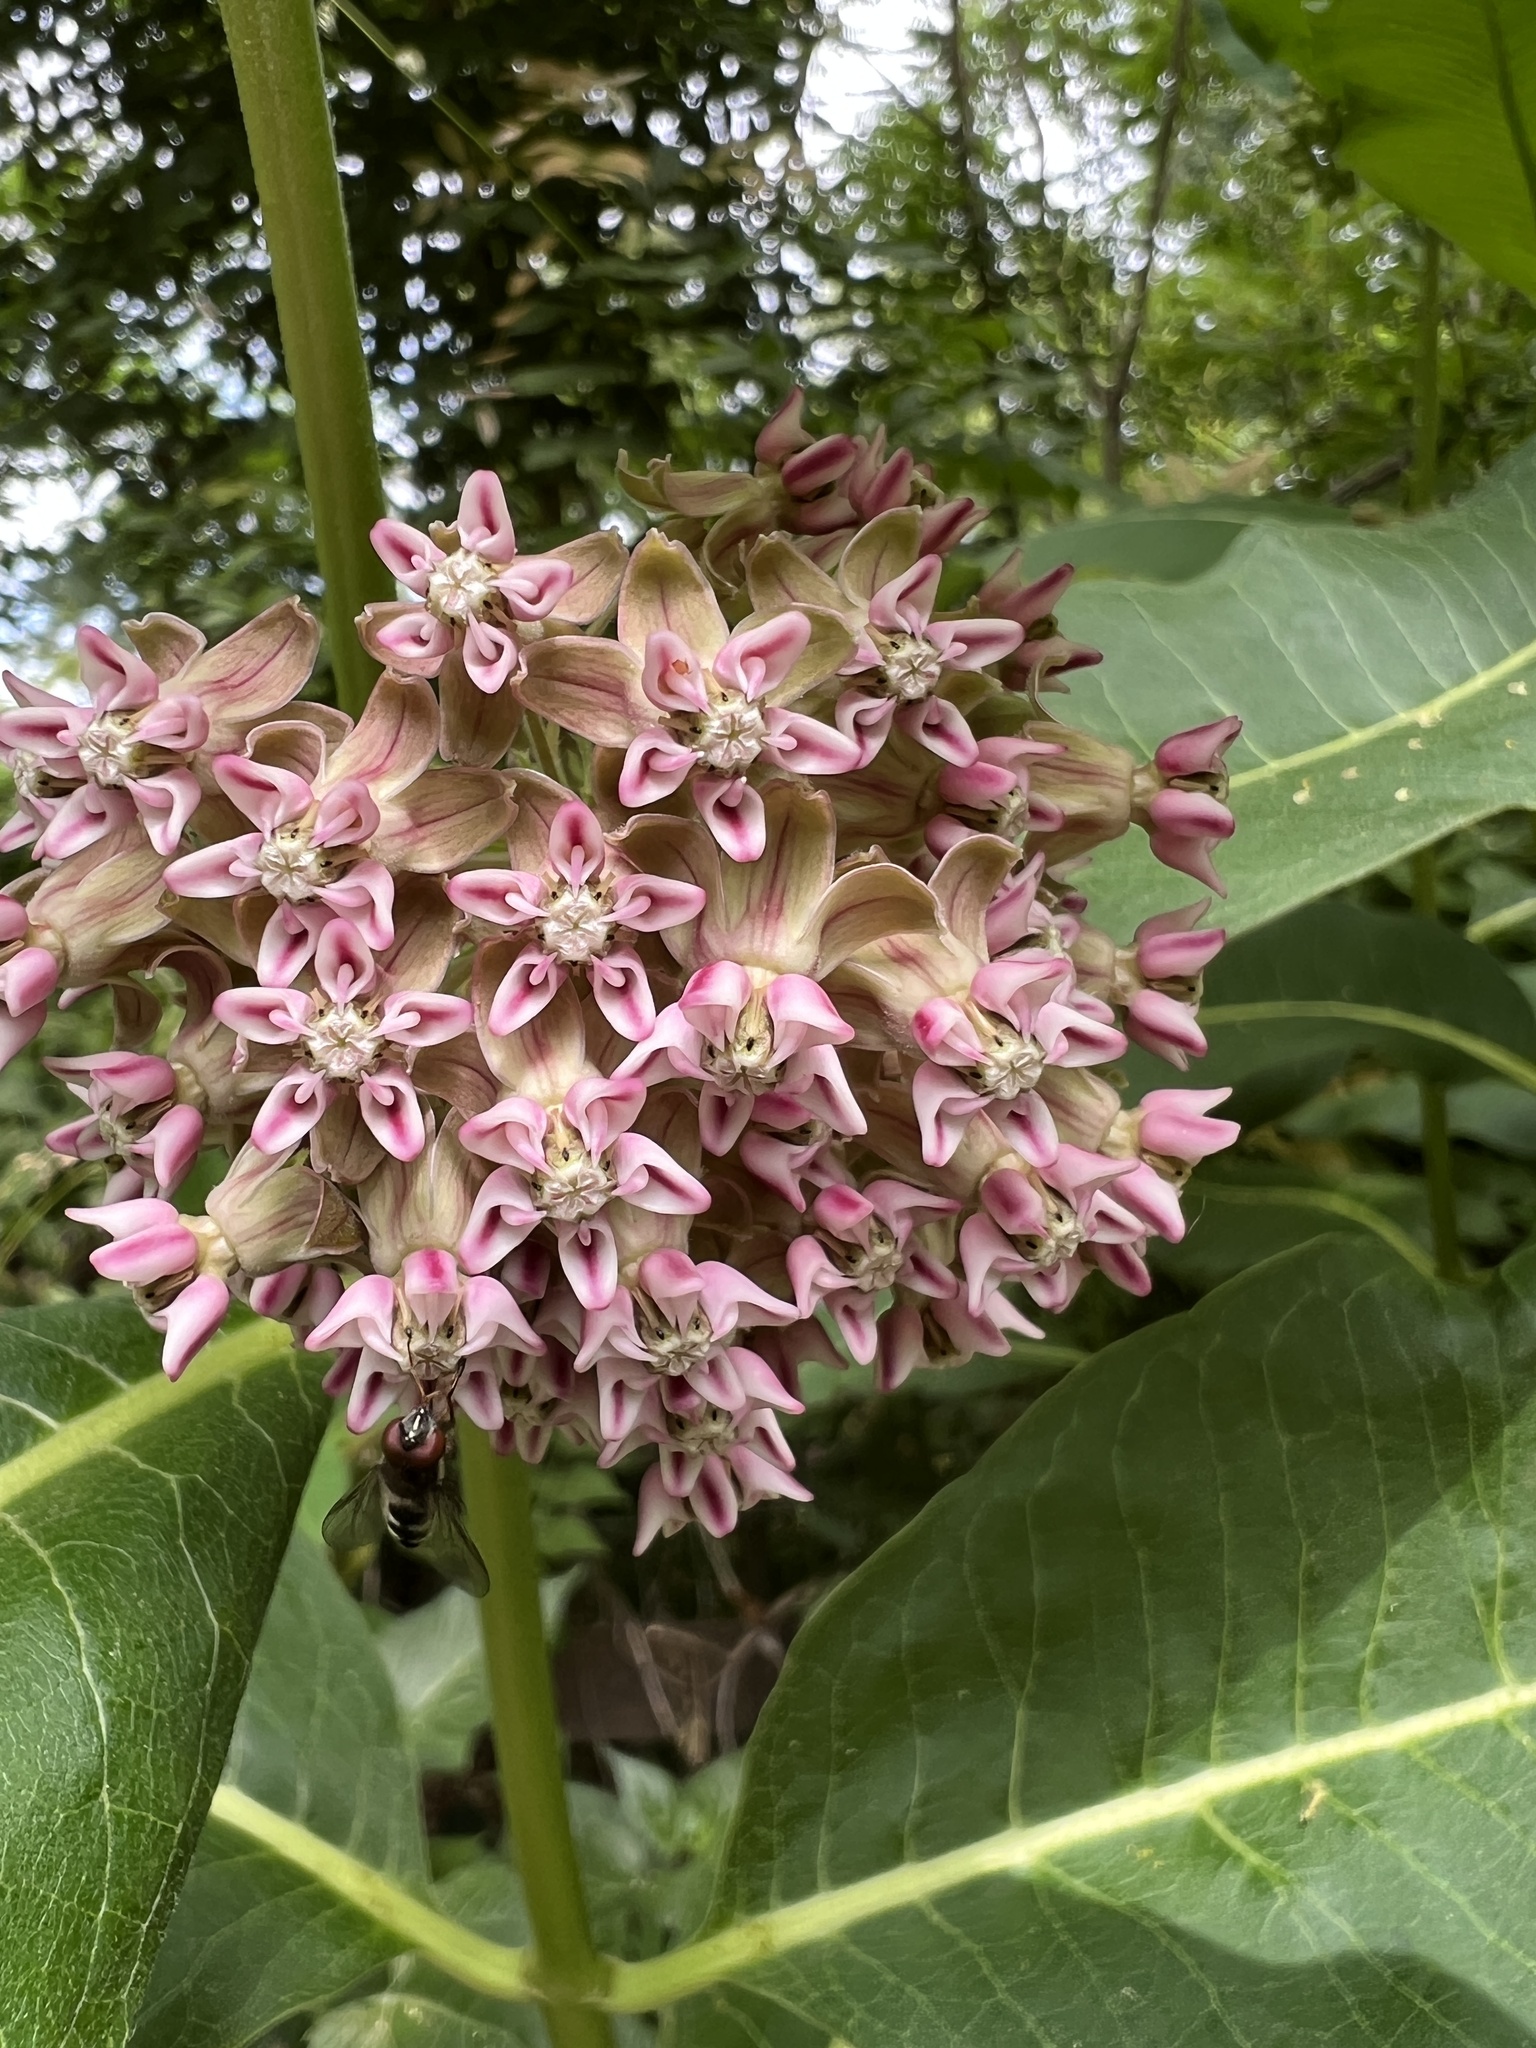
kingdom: Plantae
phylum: Tracheophyta
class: Magnoliopsida
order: Gentianales
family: Apocynaceae
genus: Asclepias
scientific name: Asclepias syriaca
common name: Common milkweed
